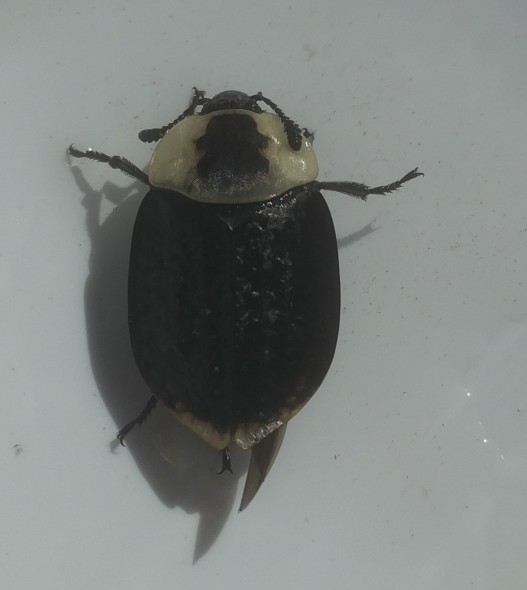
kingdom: Animalia
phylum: Arthropoda
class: Insecta
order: Coleoptera
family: Staphylinidae
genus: Necrophila
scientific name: Necrophila americana
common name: American carrion beetle
